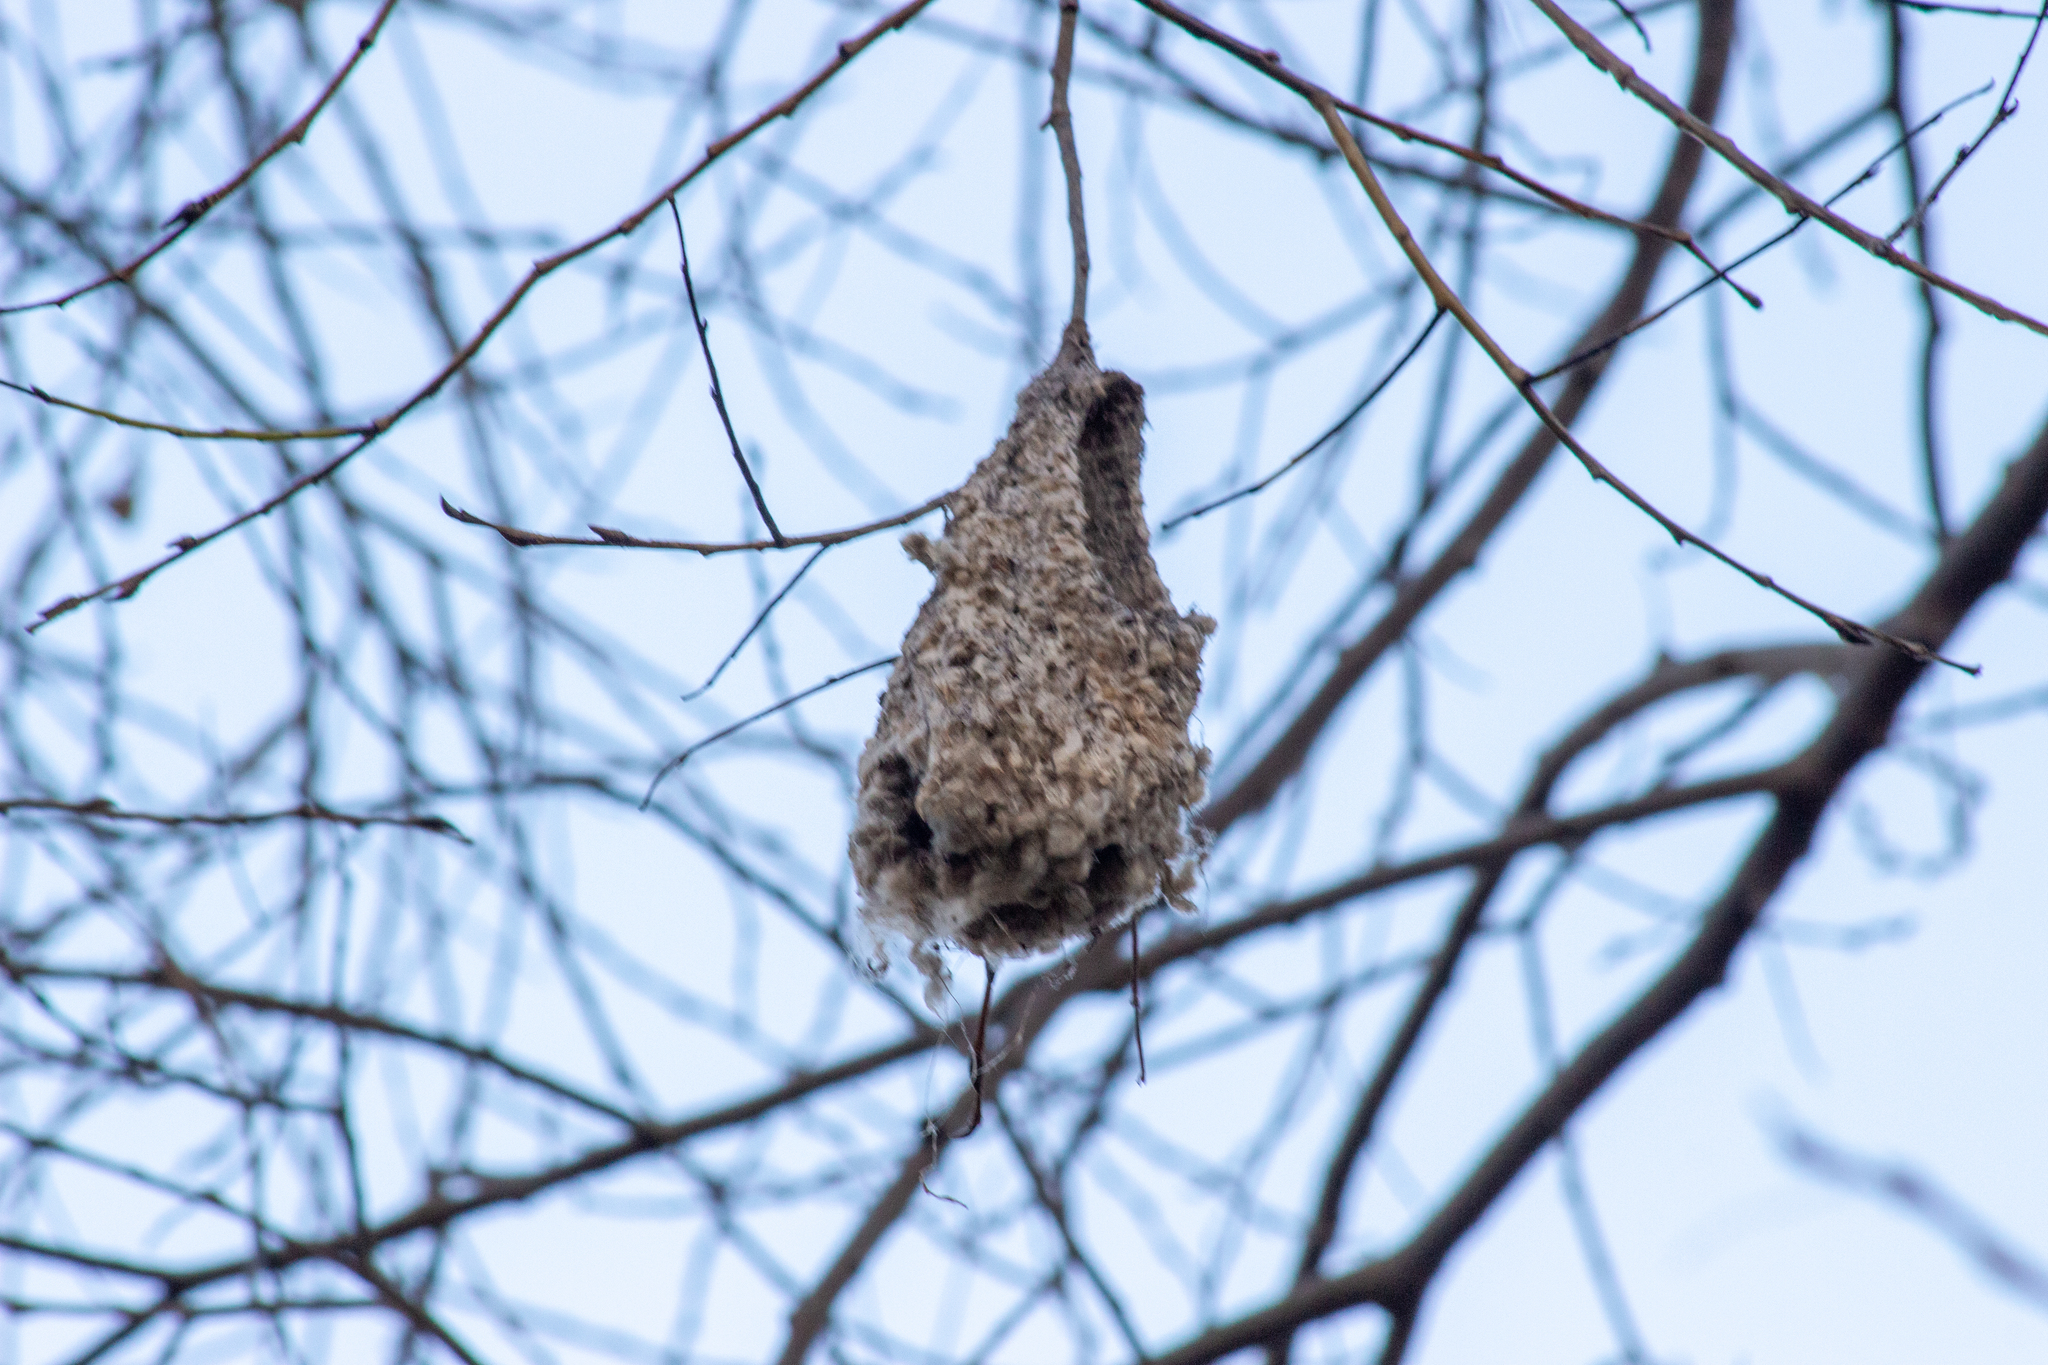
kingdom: Animalia
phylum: Chordata
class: Aves
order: Passeriformes
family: Remizidae
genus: Remiz
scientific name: Remiz pendulinus
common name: Eurasian penduline tit
